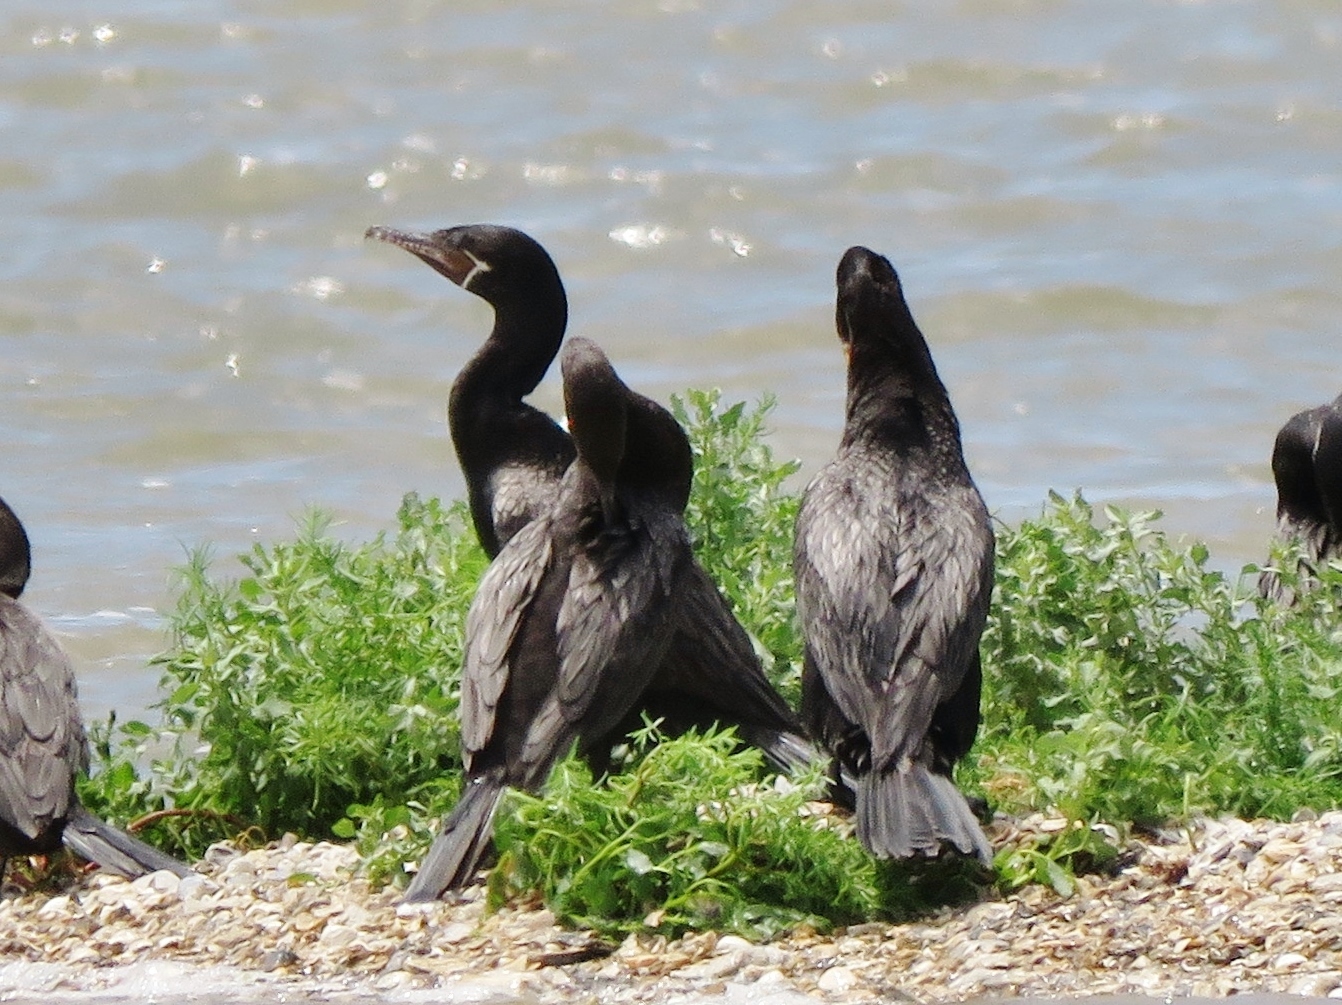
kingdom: Animalia
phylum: Chordata
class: Aves
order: Suliformes
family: Phalacrocoracidae
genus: Phalacrocorax
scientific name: Phalacrocorax brasilianus
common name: Neotropic cormorant
